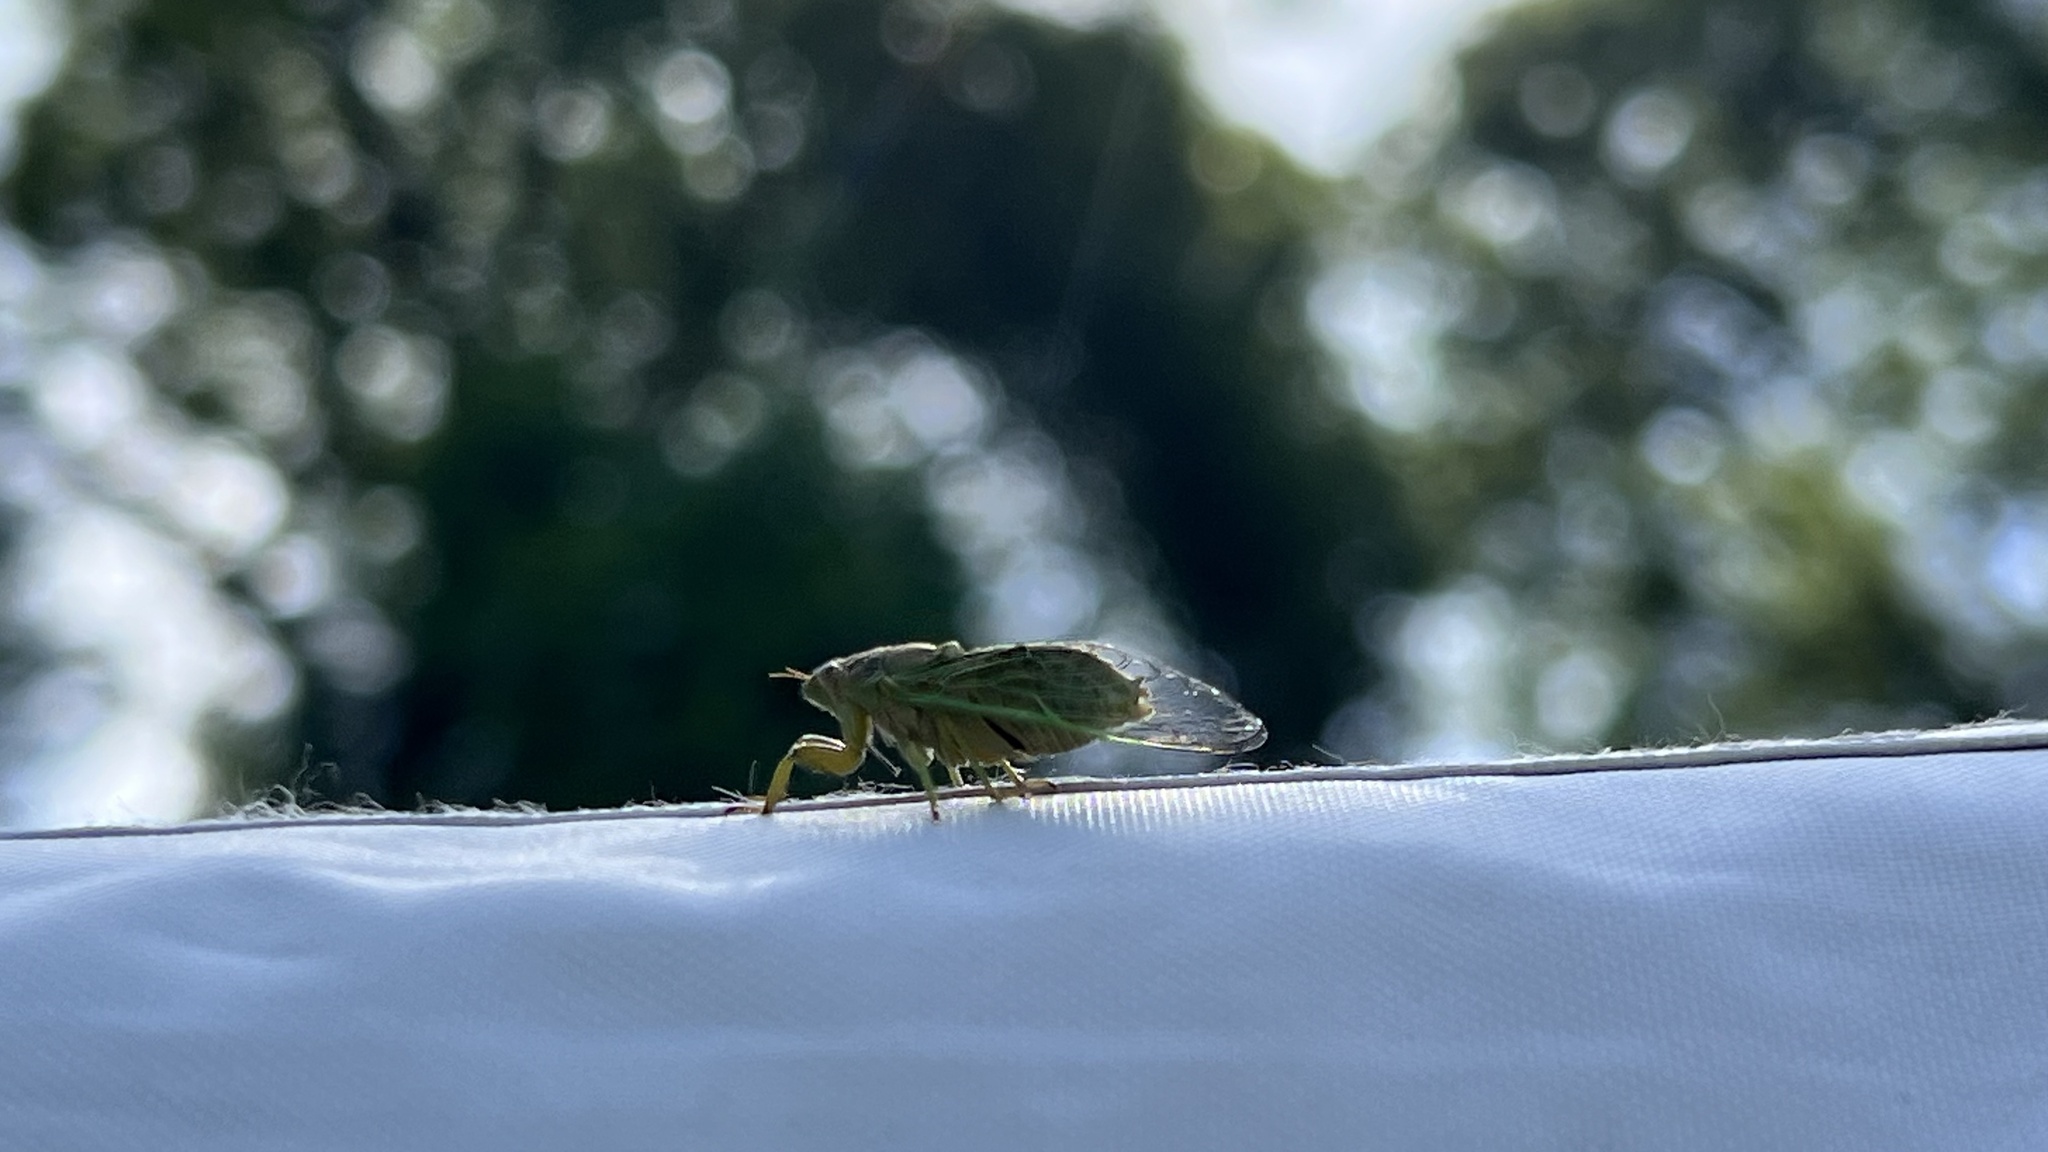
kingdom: Animalia
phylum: Arthropoda
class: Insecta
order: Hemiptera
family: Cicadidae
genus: Mogannia
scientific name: Mogannia hebes
